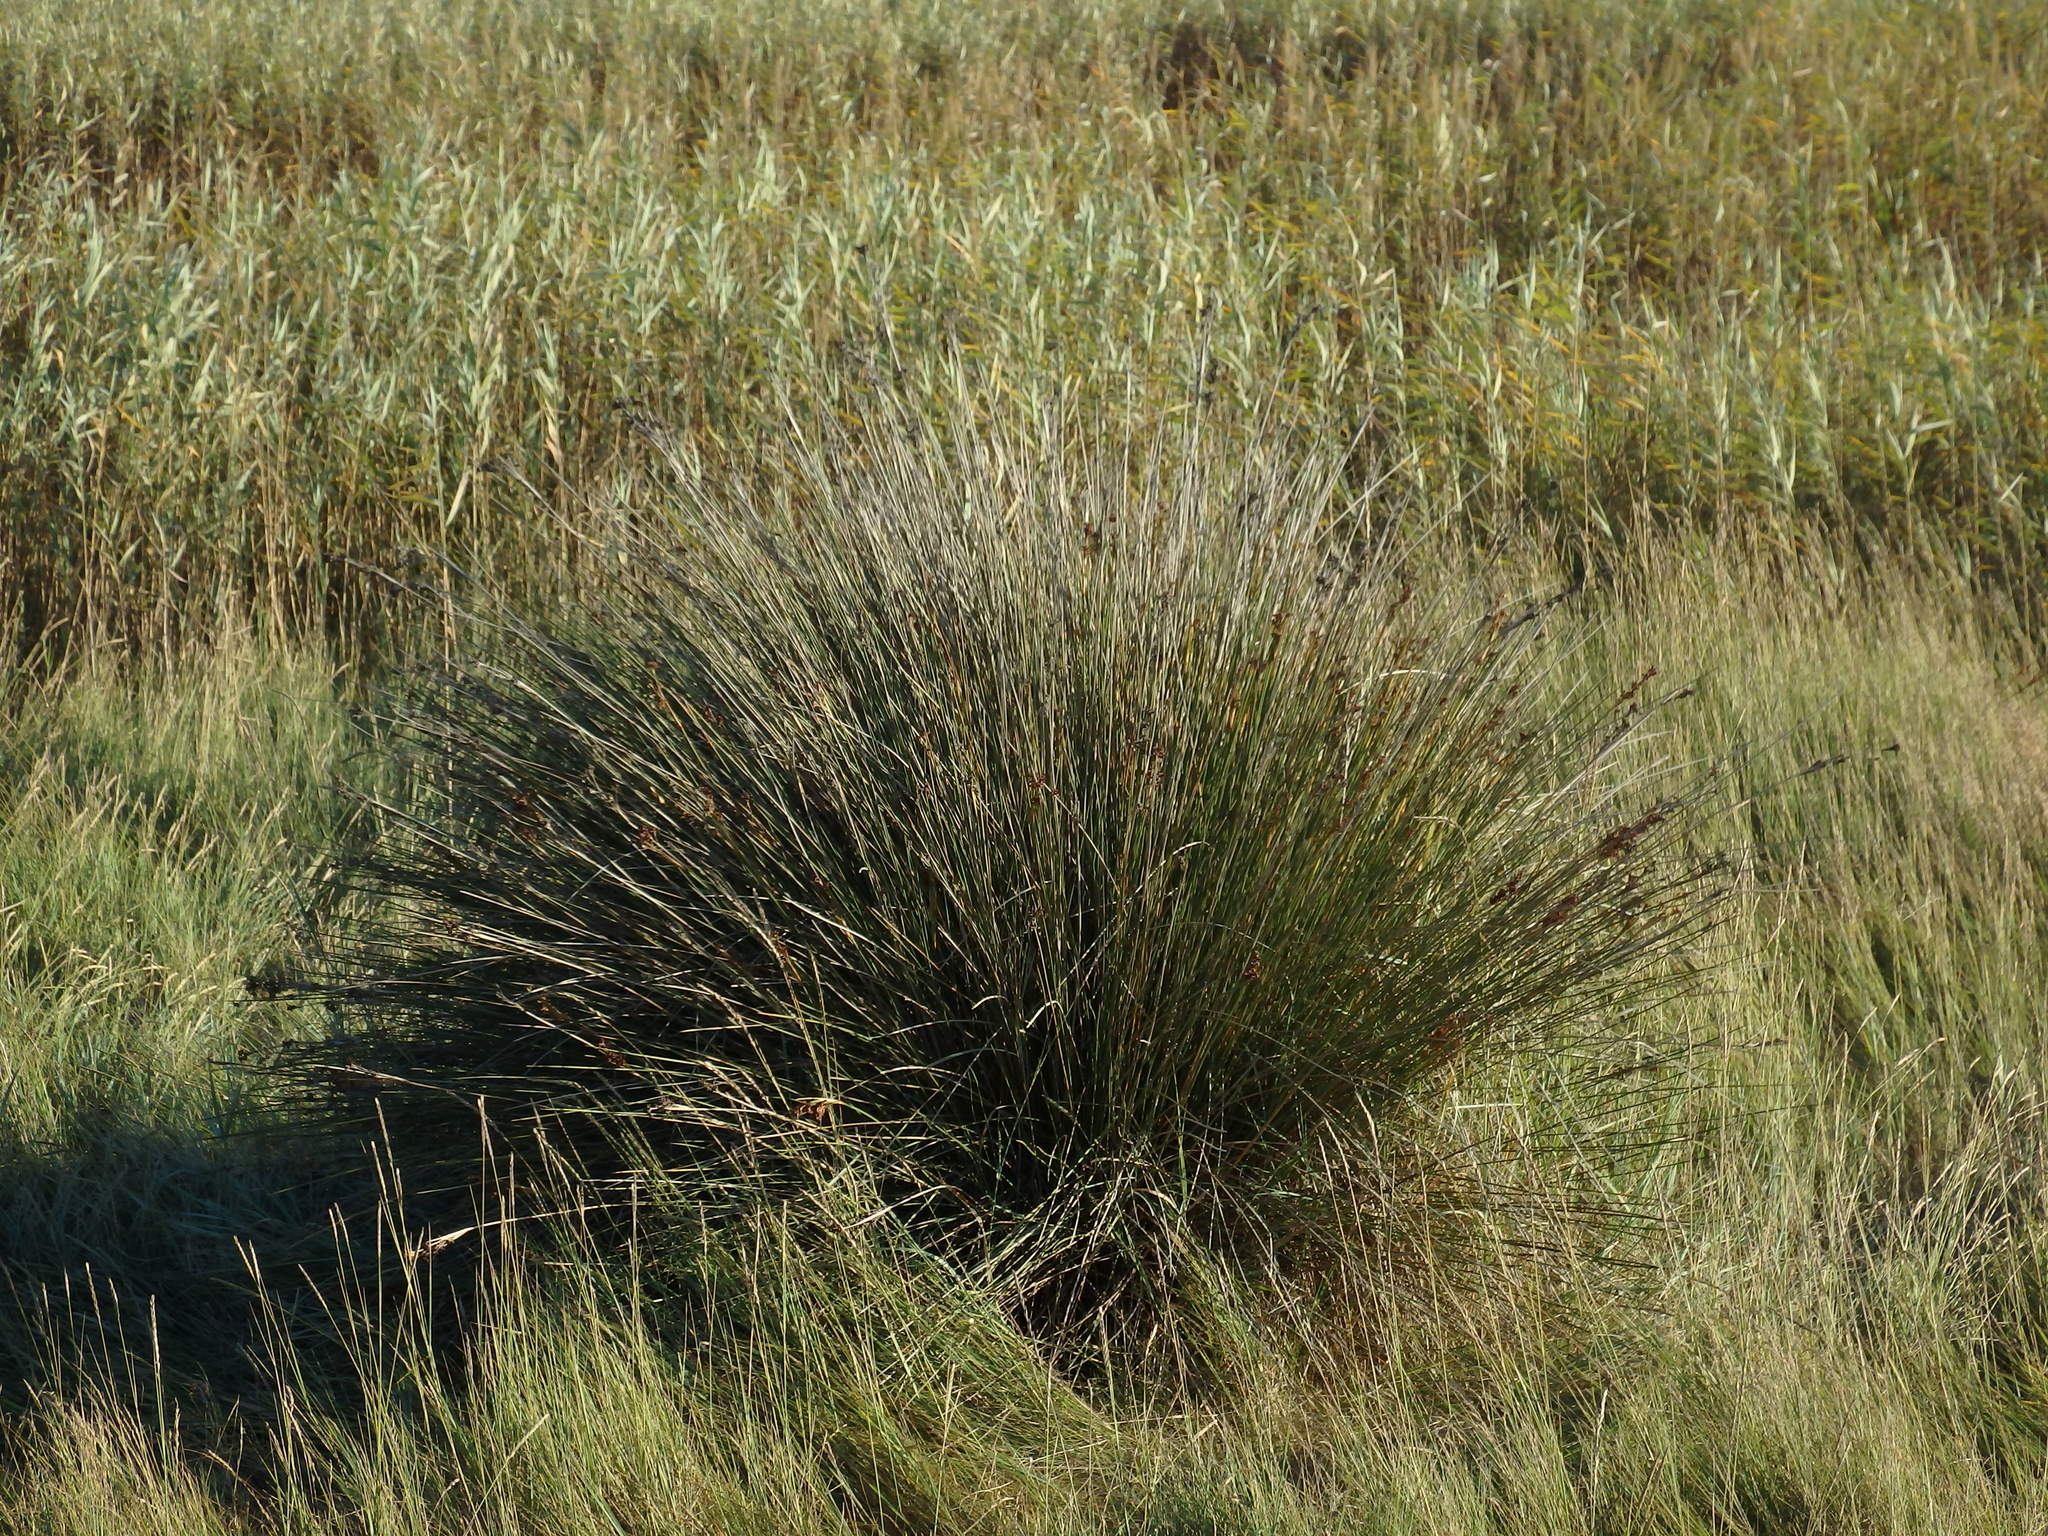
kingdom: Plantae
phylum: Tracheophyta
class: Liliopsida
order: Poales
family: Juncaceae
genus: Juncus
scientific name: Juncus acutus
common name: Sharp rush
